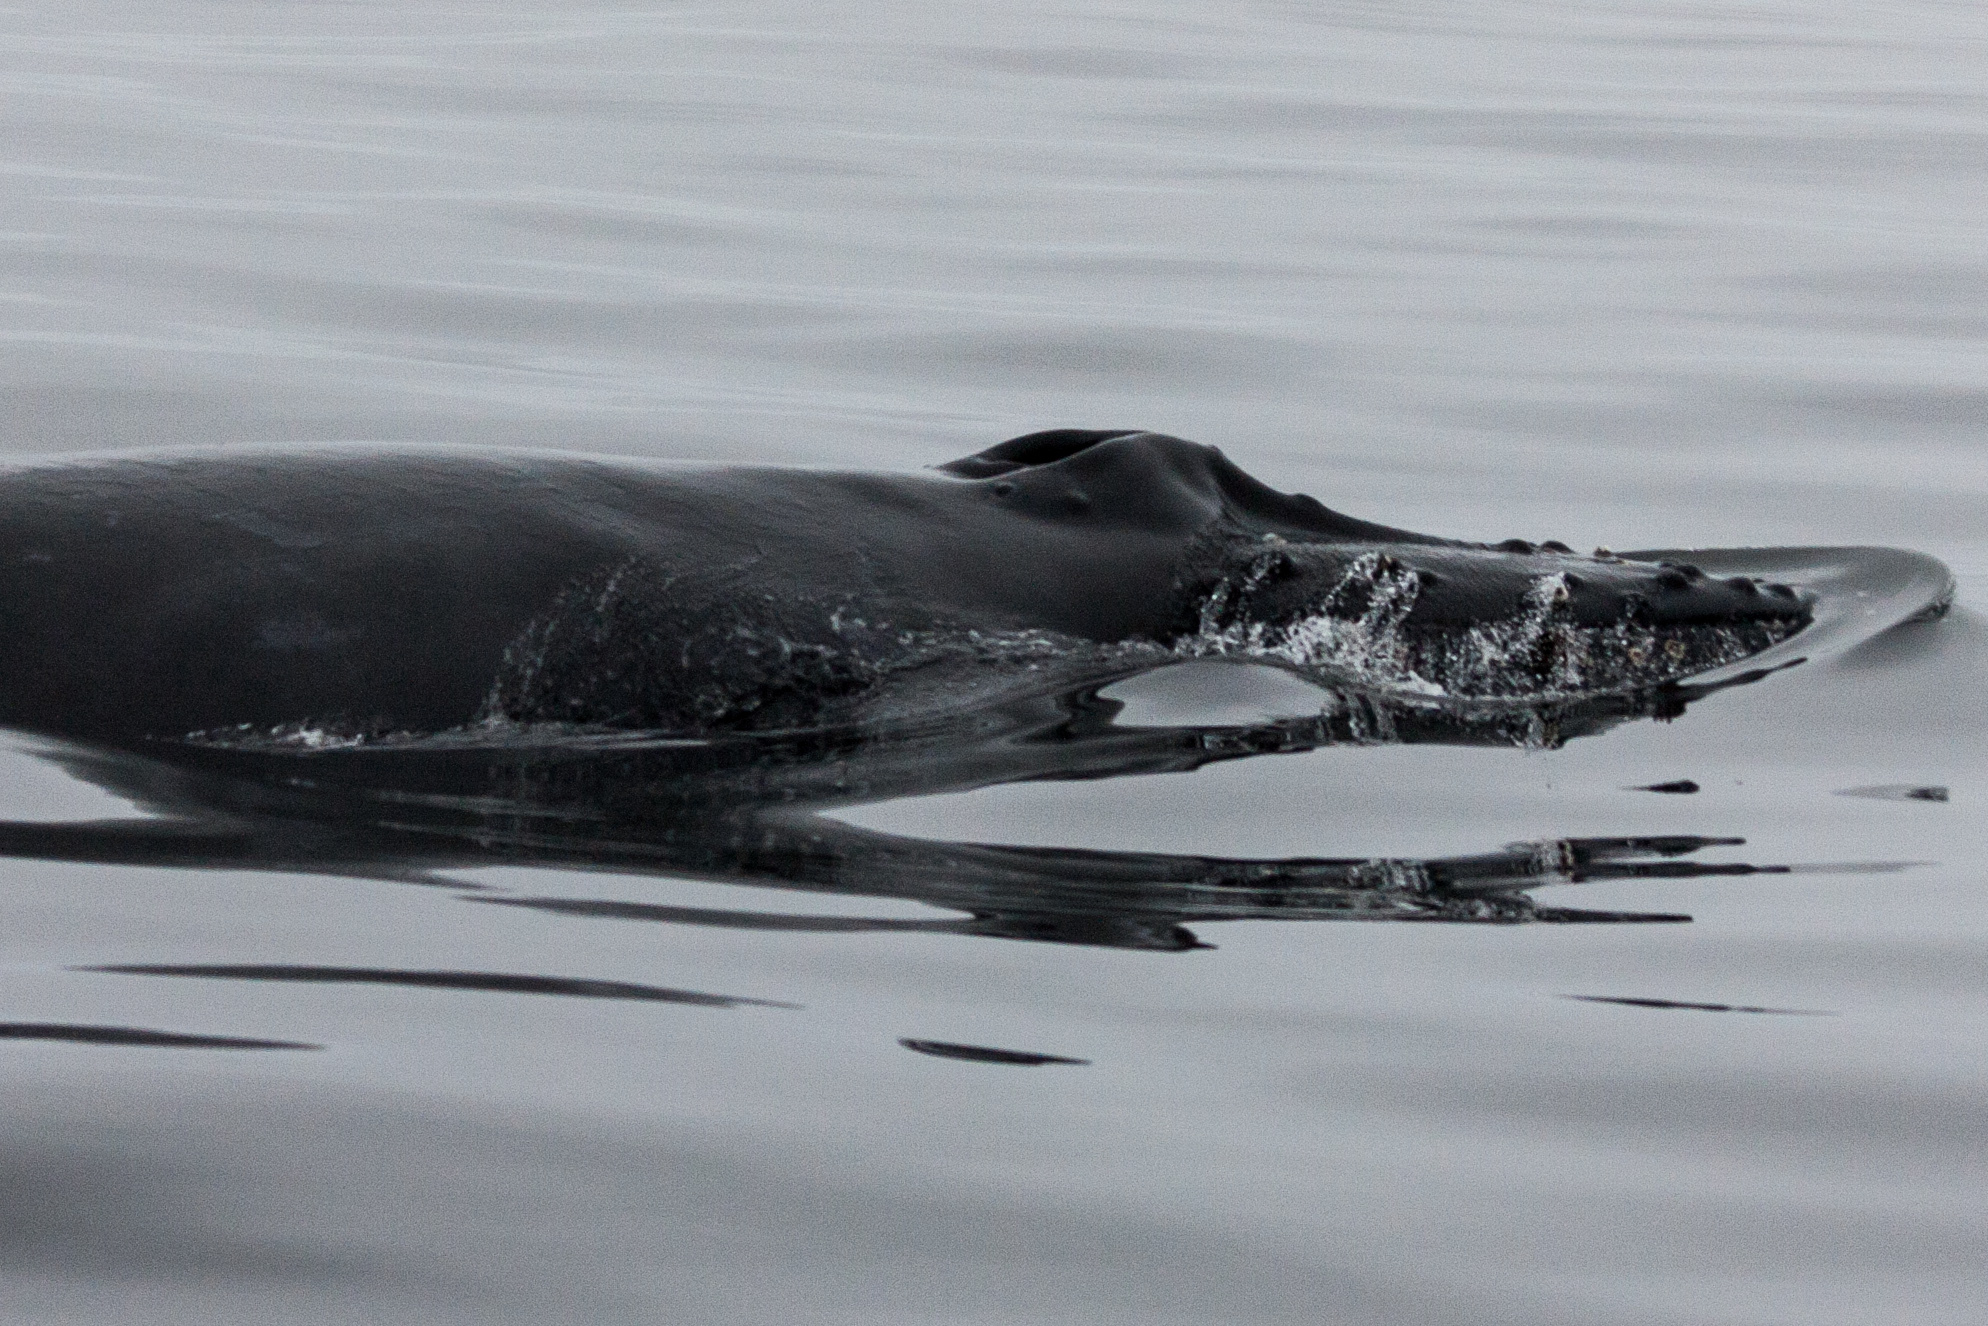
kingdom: Animalia
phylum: Chordata
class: Mammalia
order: Cetacea
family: Balaenopteridae
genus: Megaptera
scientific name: Megaptera novaeangliae
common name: Humpback whale
